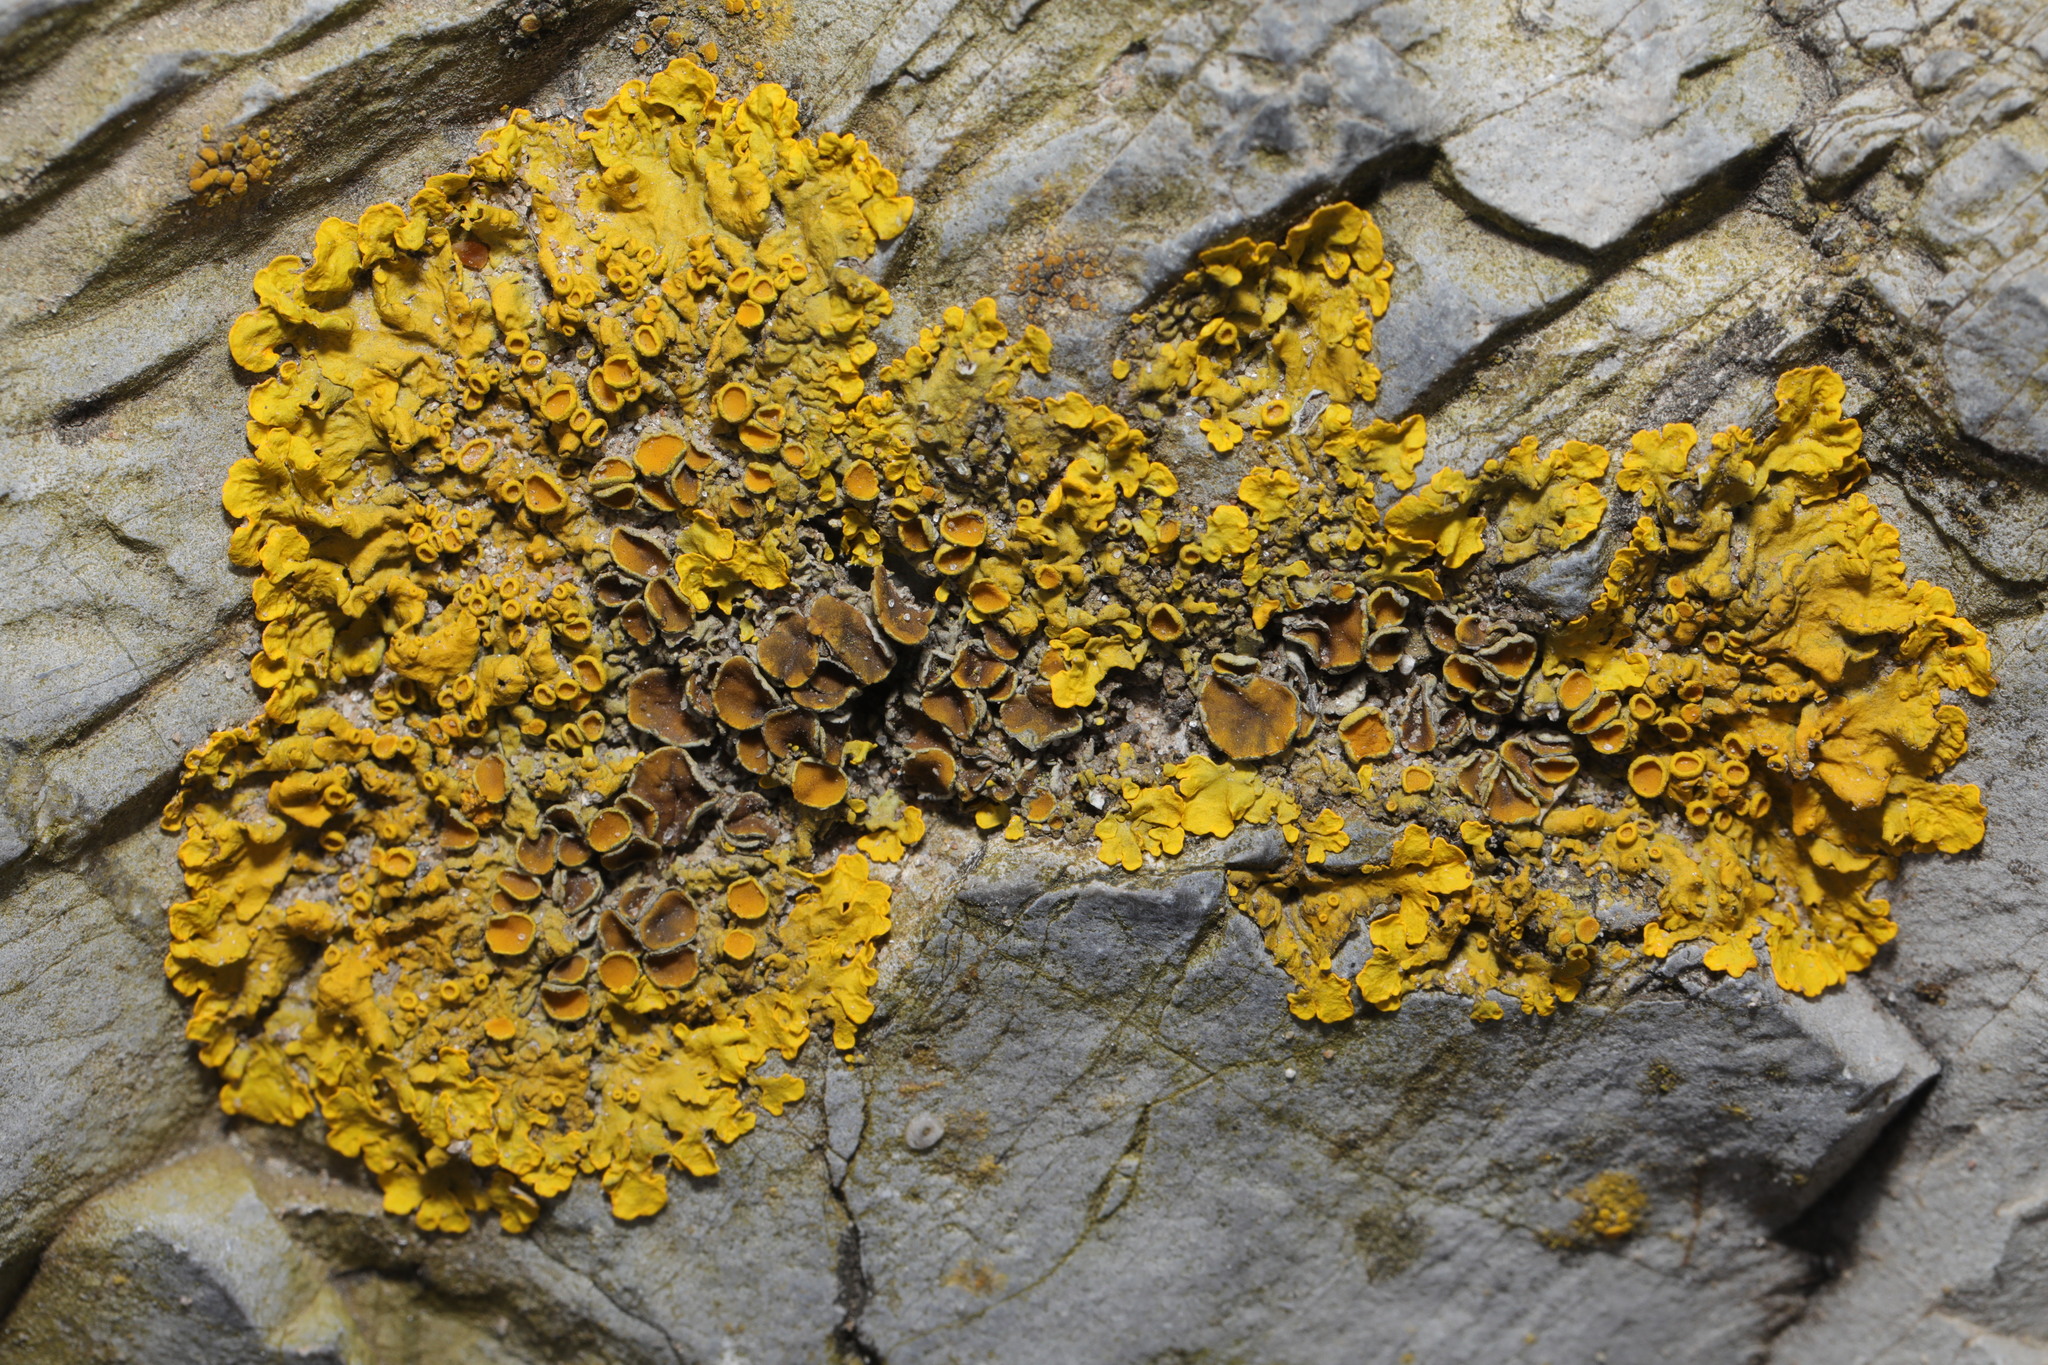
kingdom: Fungi
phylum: Ascomycota
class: Lecanoromycetes
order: Teloschistales
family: Teloschistaceae
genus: Xanthoria
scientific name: Xanthoria parietina
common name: Common orange lichen
